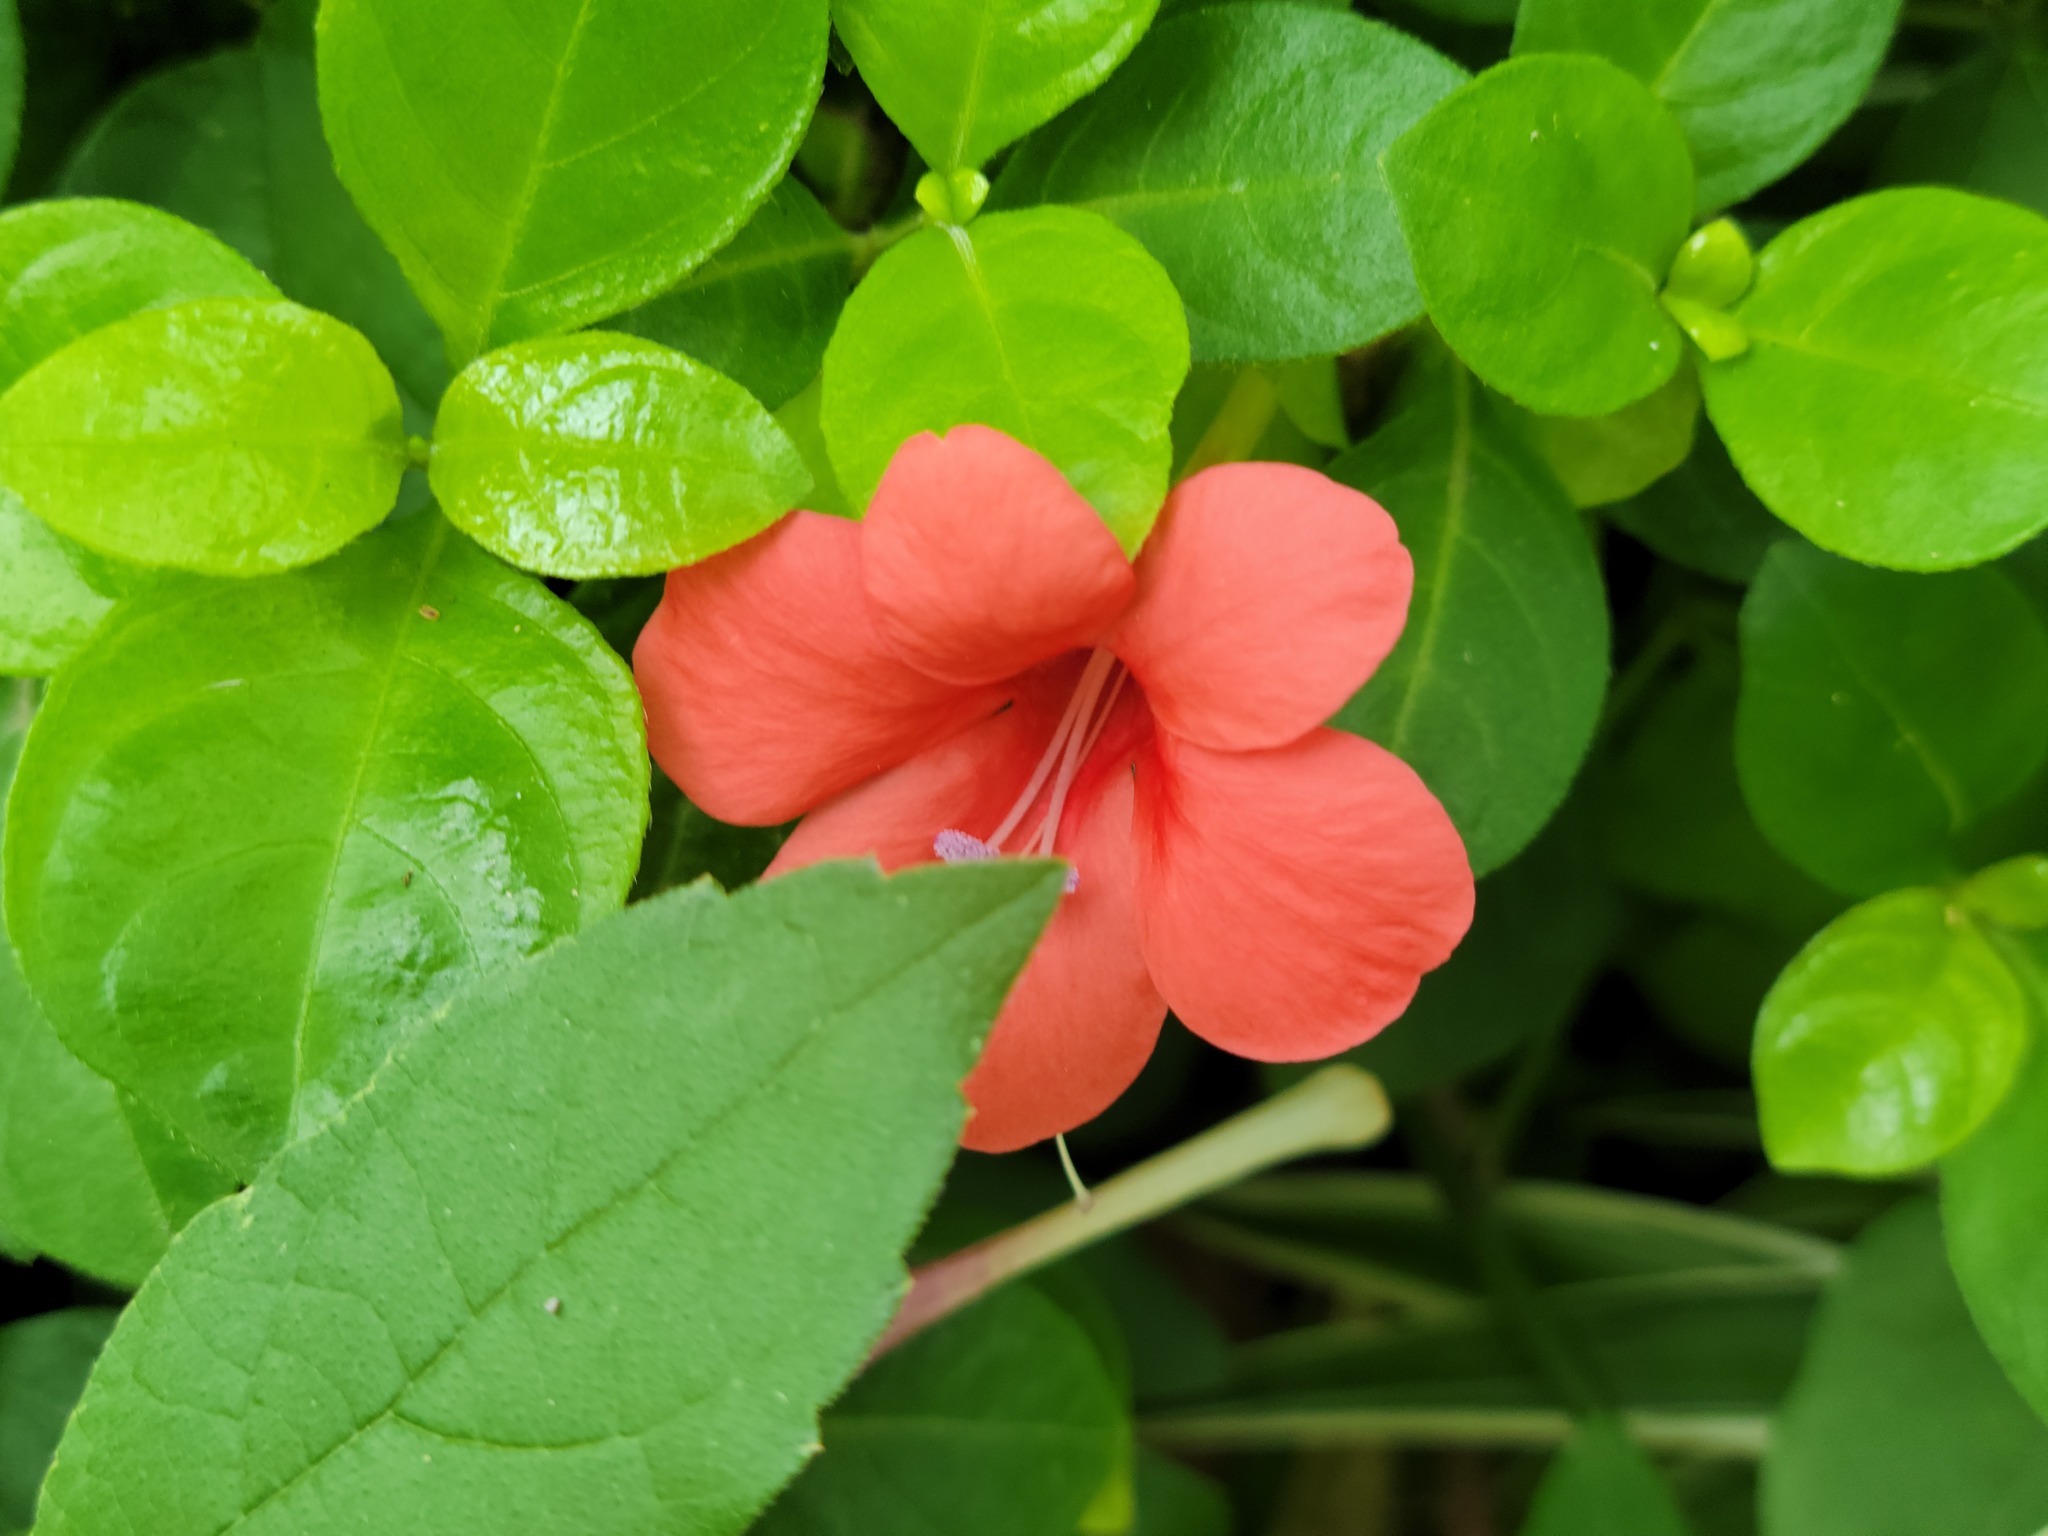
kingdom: Plantae
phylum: Tracheophyta
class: Magnoliopsida
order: Lamiales
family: Acanthaceae
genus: Barleria
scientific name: Barleria repens
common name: Pink-ruellia
